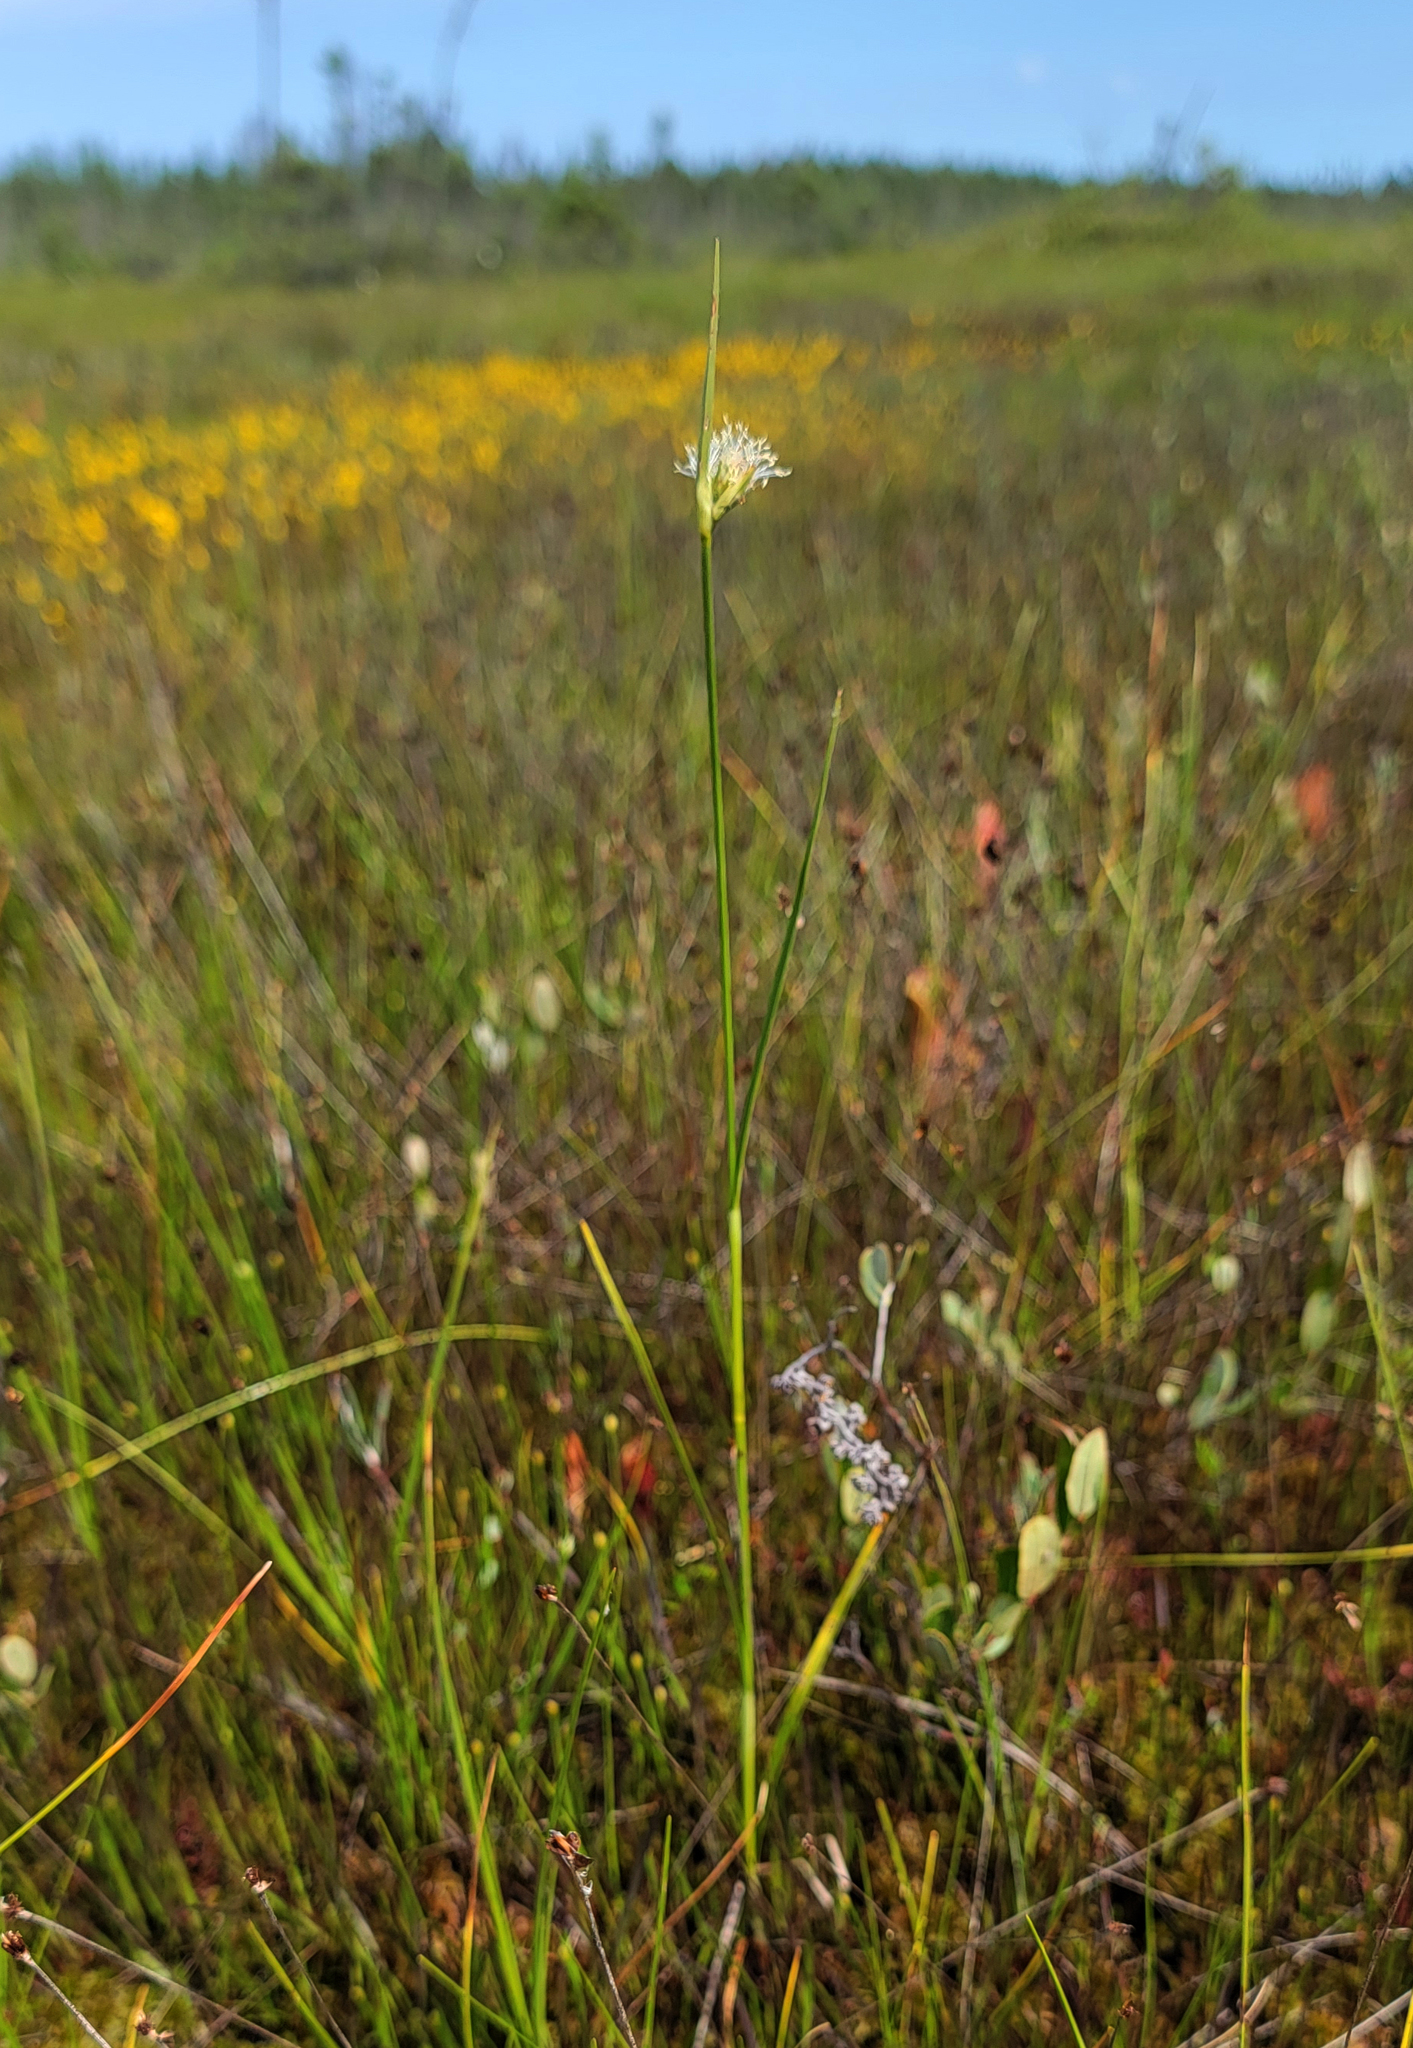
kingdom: Plantae
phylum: Tracheophyta
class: Liliopsida
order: Poales
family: Cyperaceae
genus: Rhynchospora
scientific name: Rhynchospora alba
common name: White beak-sedge
